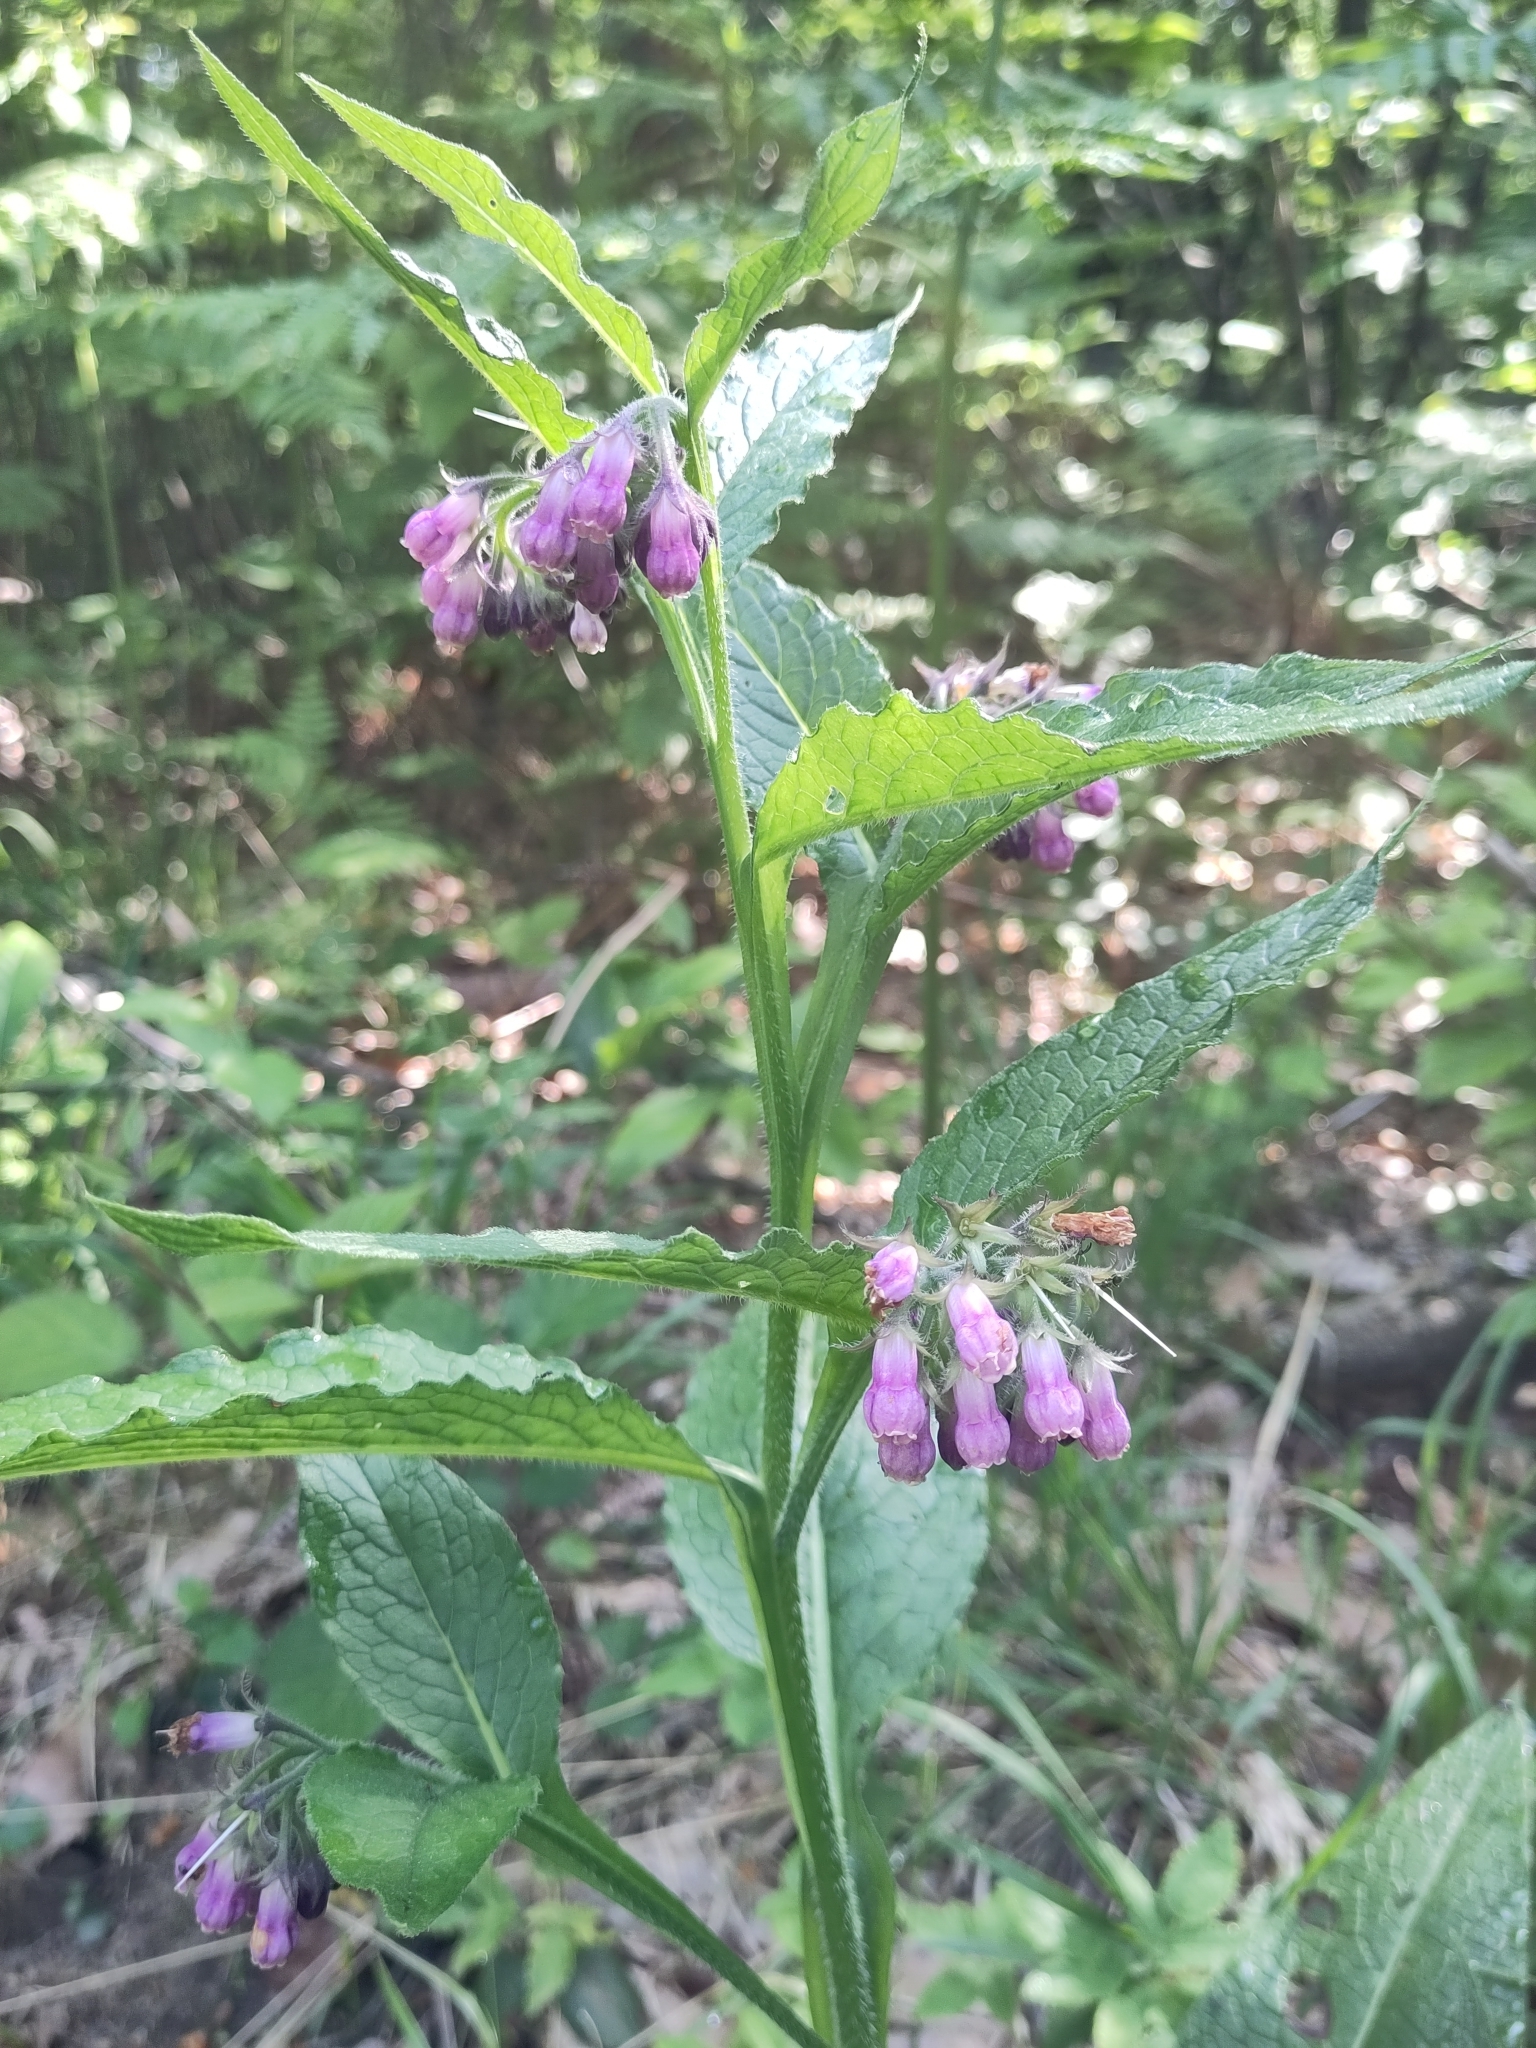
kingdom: Plantae
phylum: Tracheophyta
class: Magnoliopsida
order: Boraginales
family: Boraginaceae
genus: Symphytum
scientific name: Symphytum officinale
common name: Common comfrey
